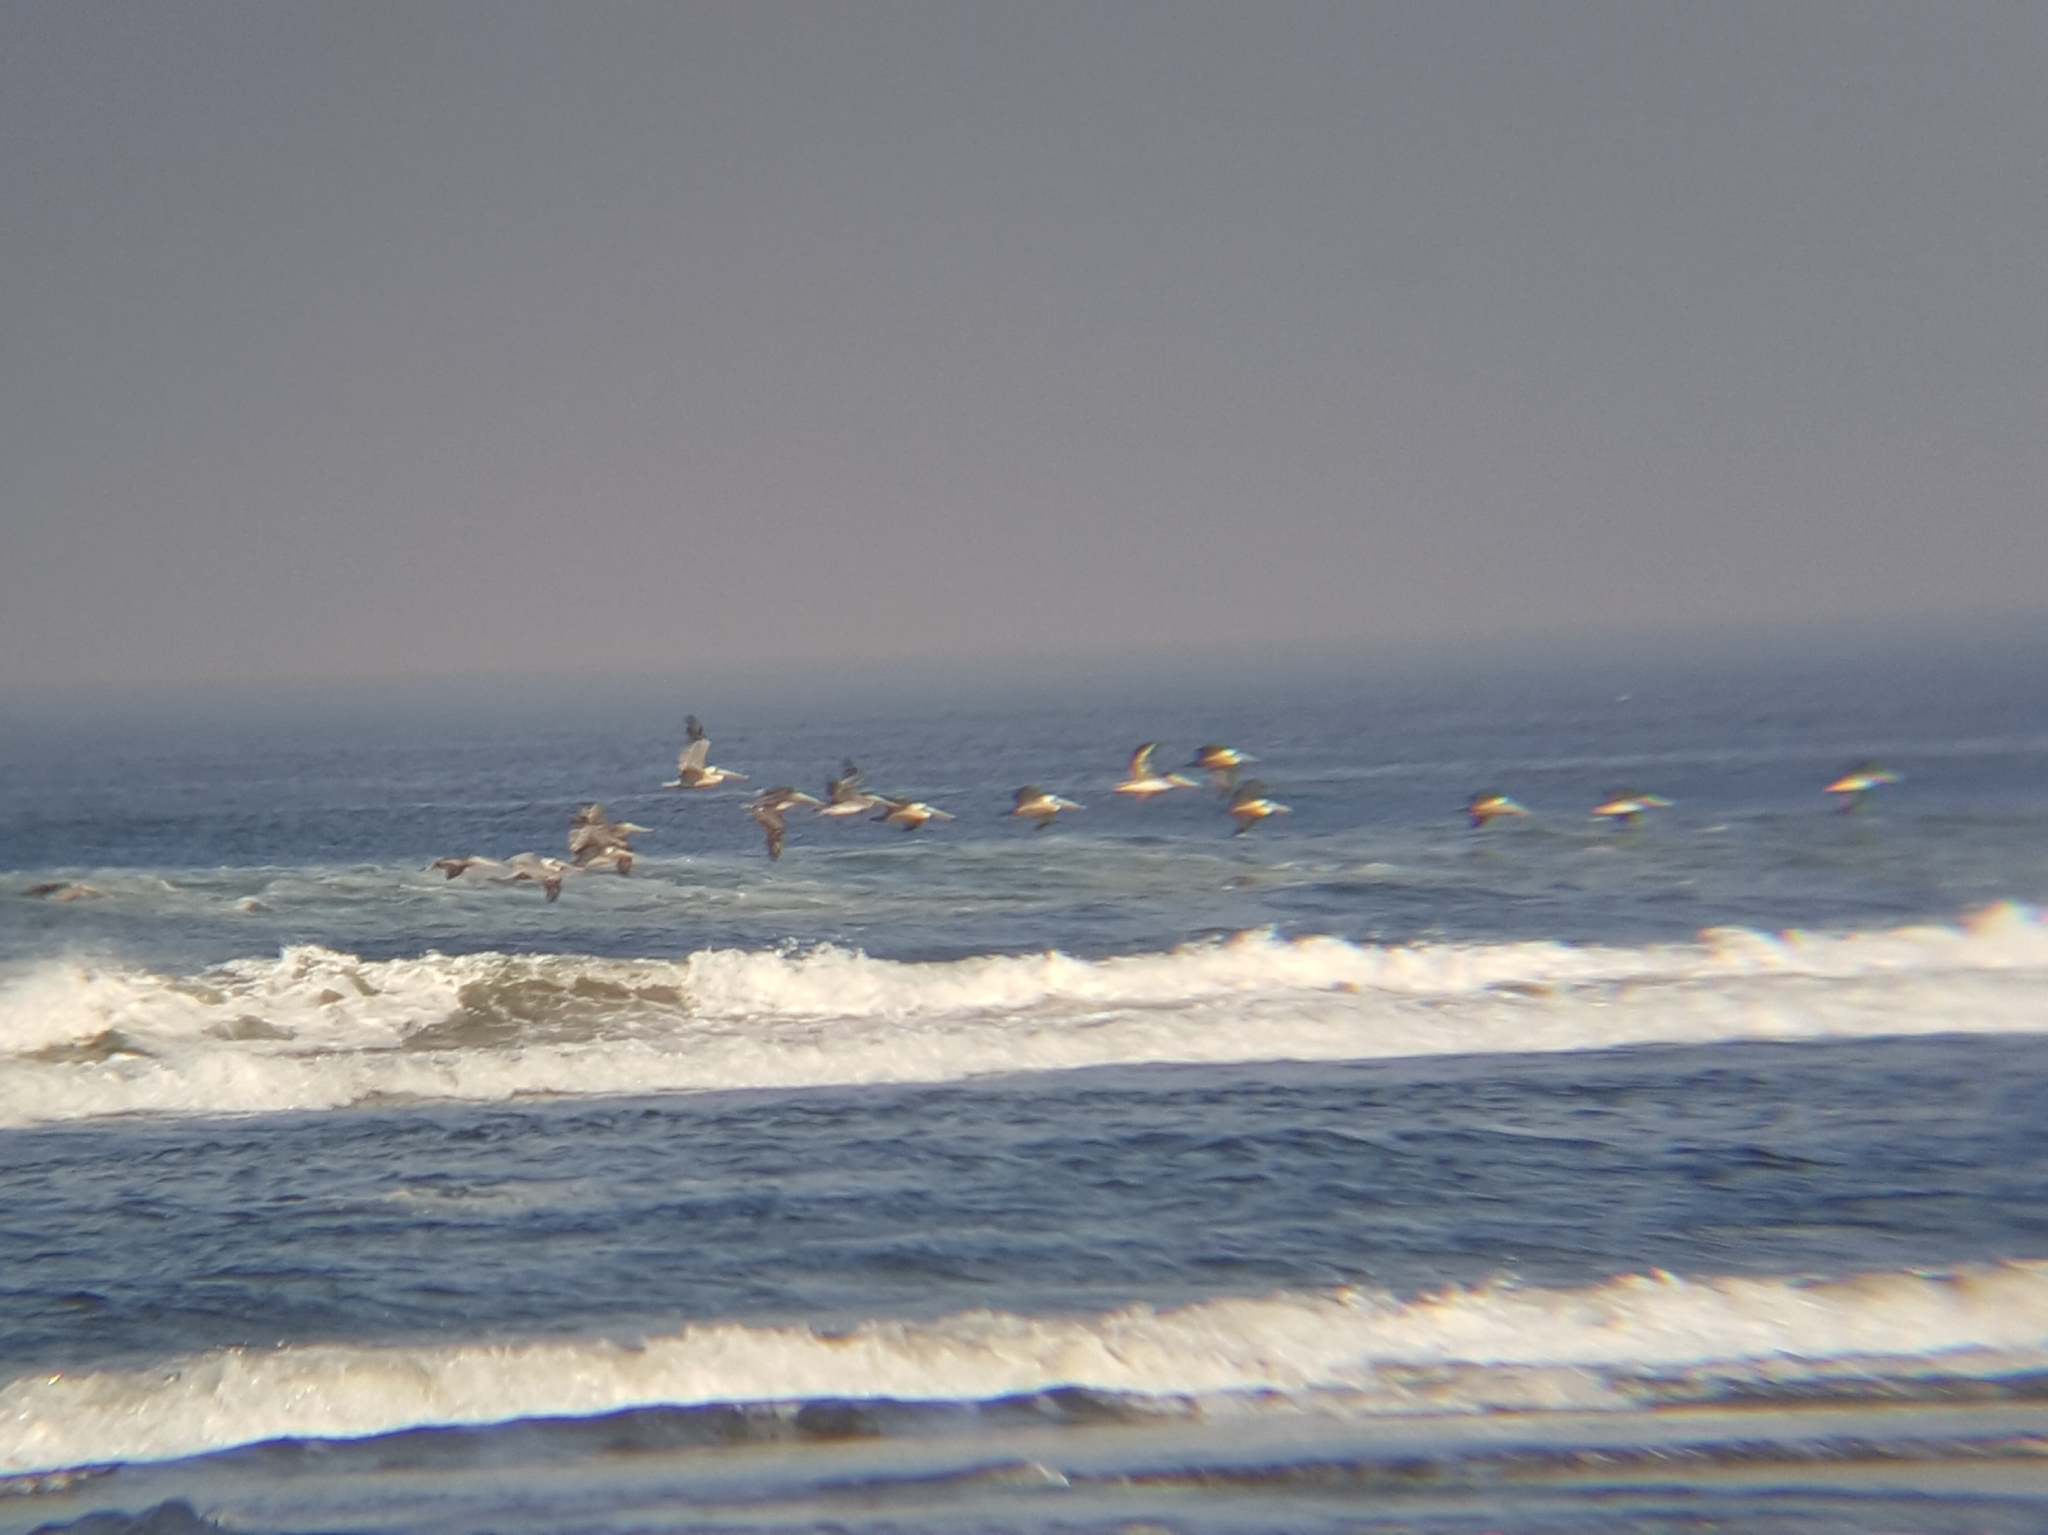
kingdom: Animalia
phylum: Chordata
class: Aves
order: Pelecaniformes
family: Pelecanidae
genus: Pelecanus
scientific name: Pelecanus occidentalis
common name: Brown pelican
